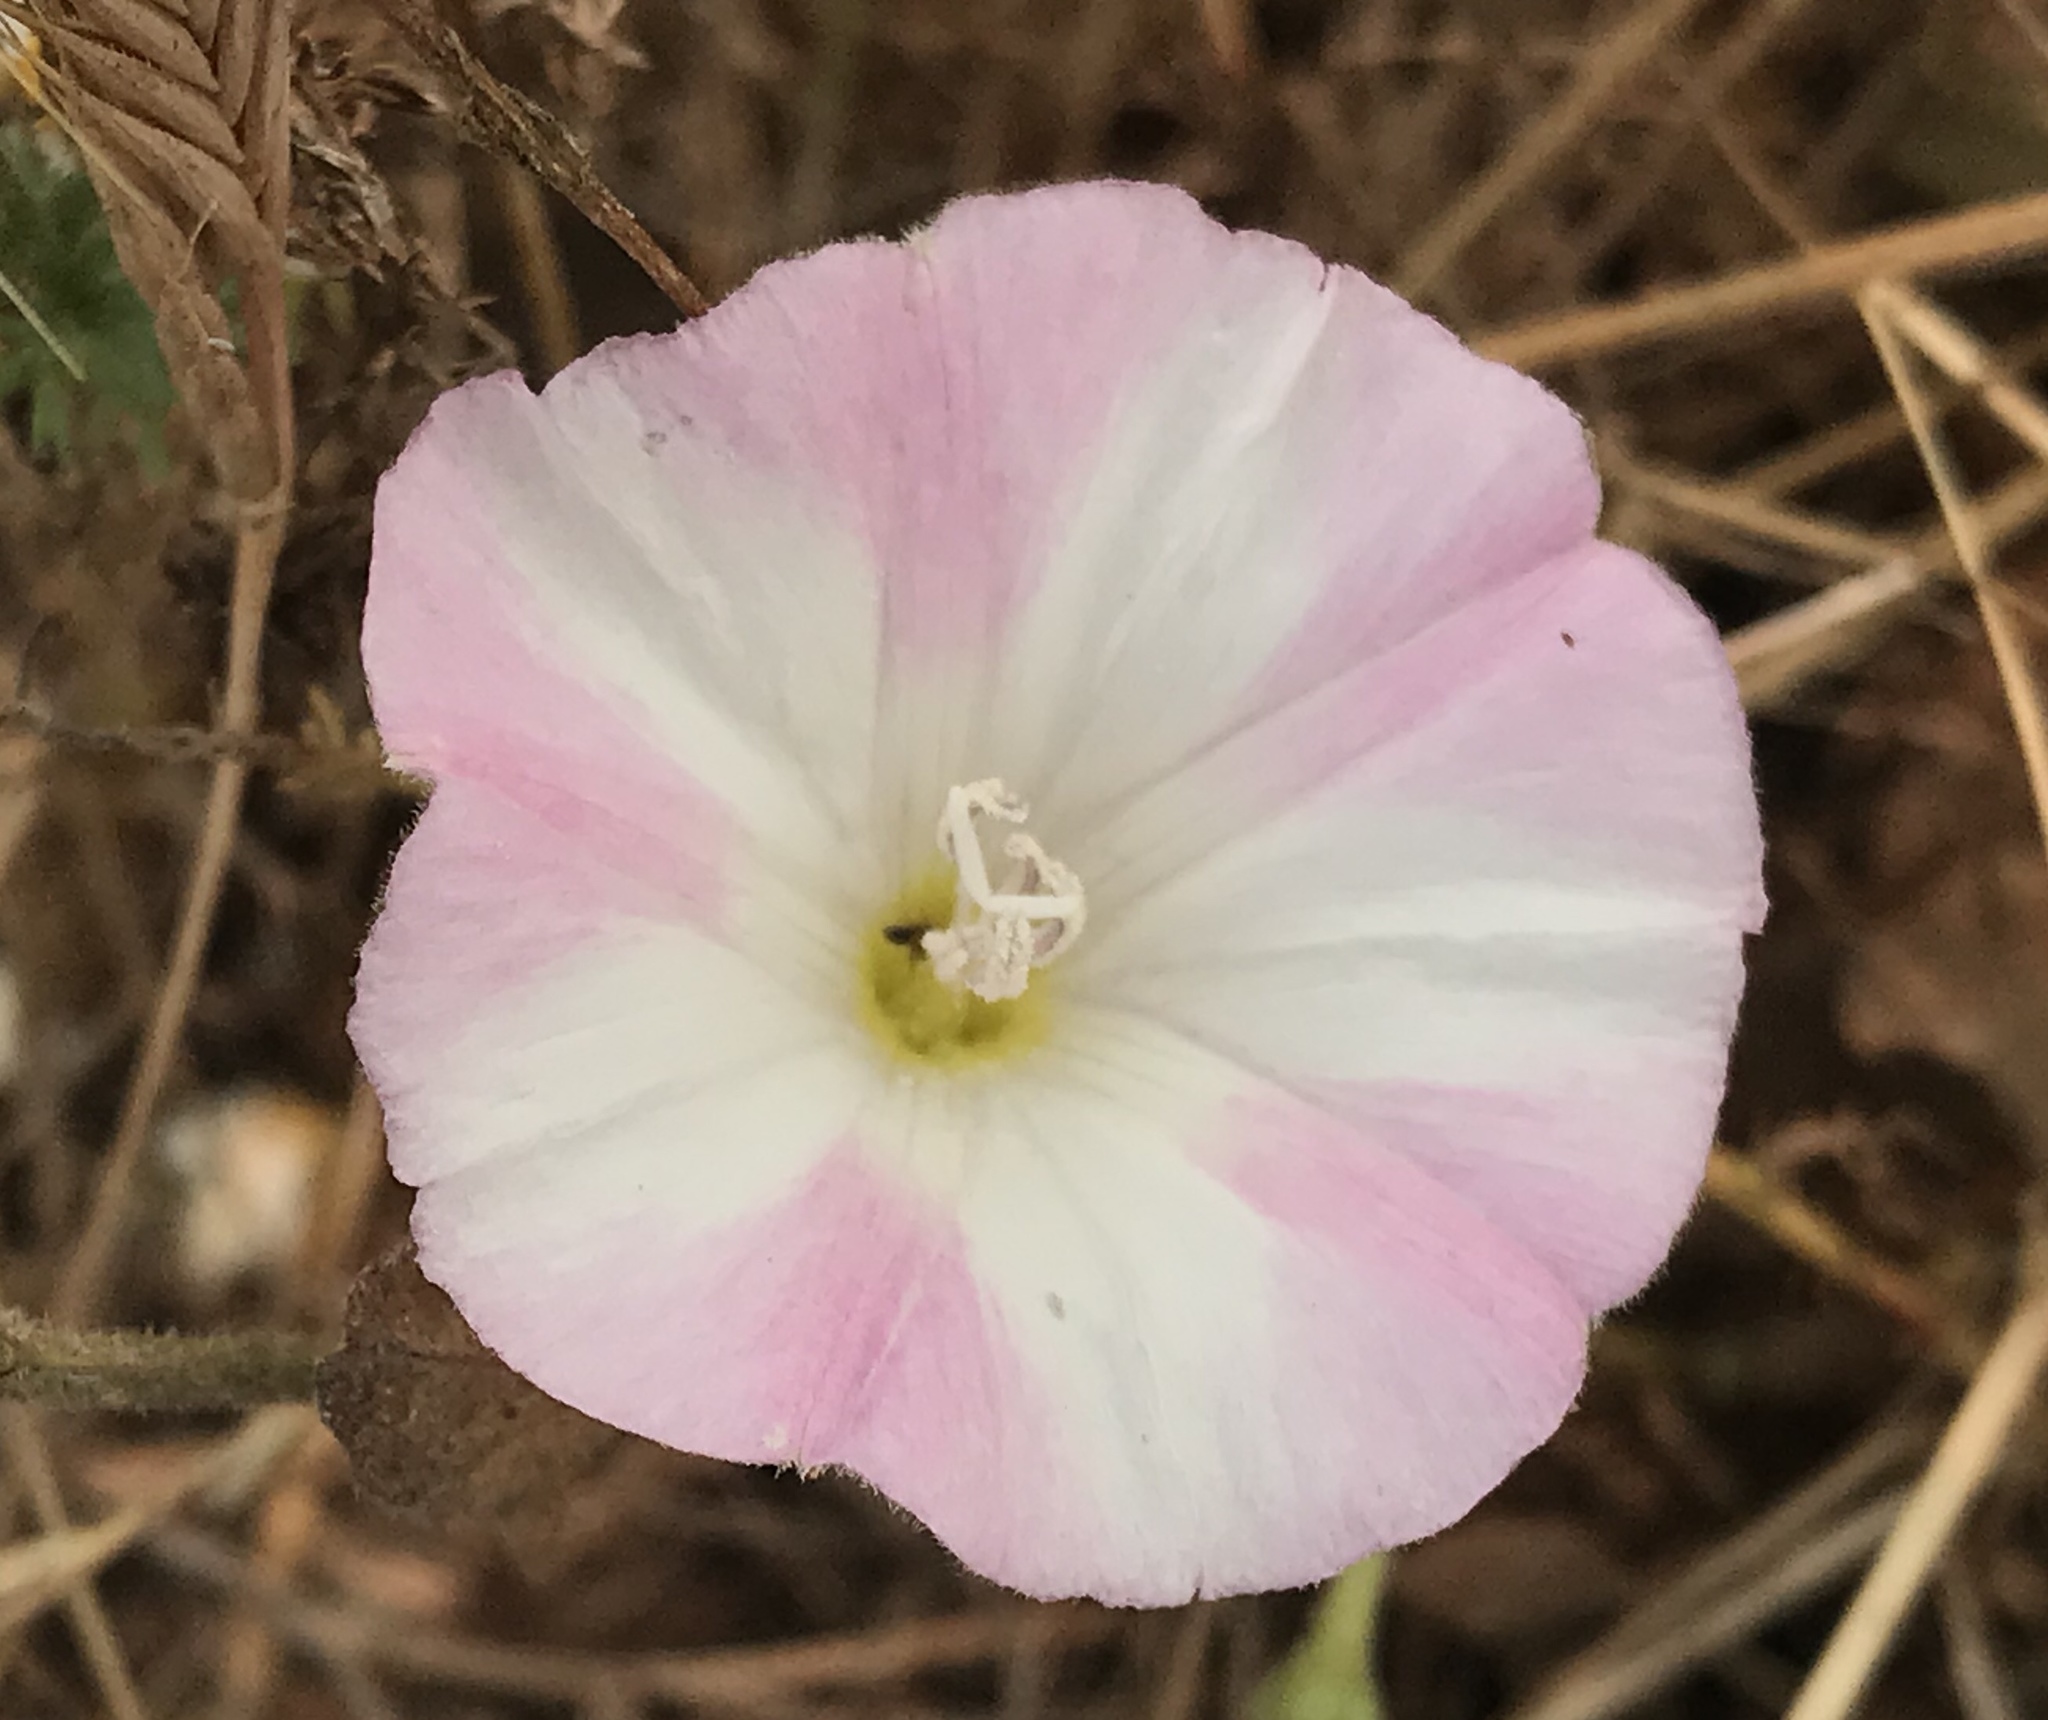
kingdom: Plantae
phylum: Tracheophyta
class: Magnoliopsida
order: Solanales
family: Convolvulaceae
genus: Convolvulus
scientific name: Convolvulus arvensis
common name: Field bindweed
